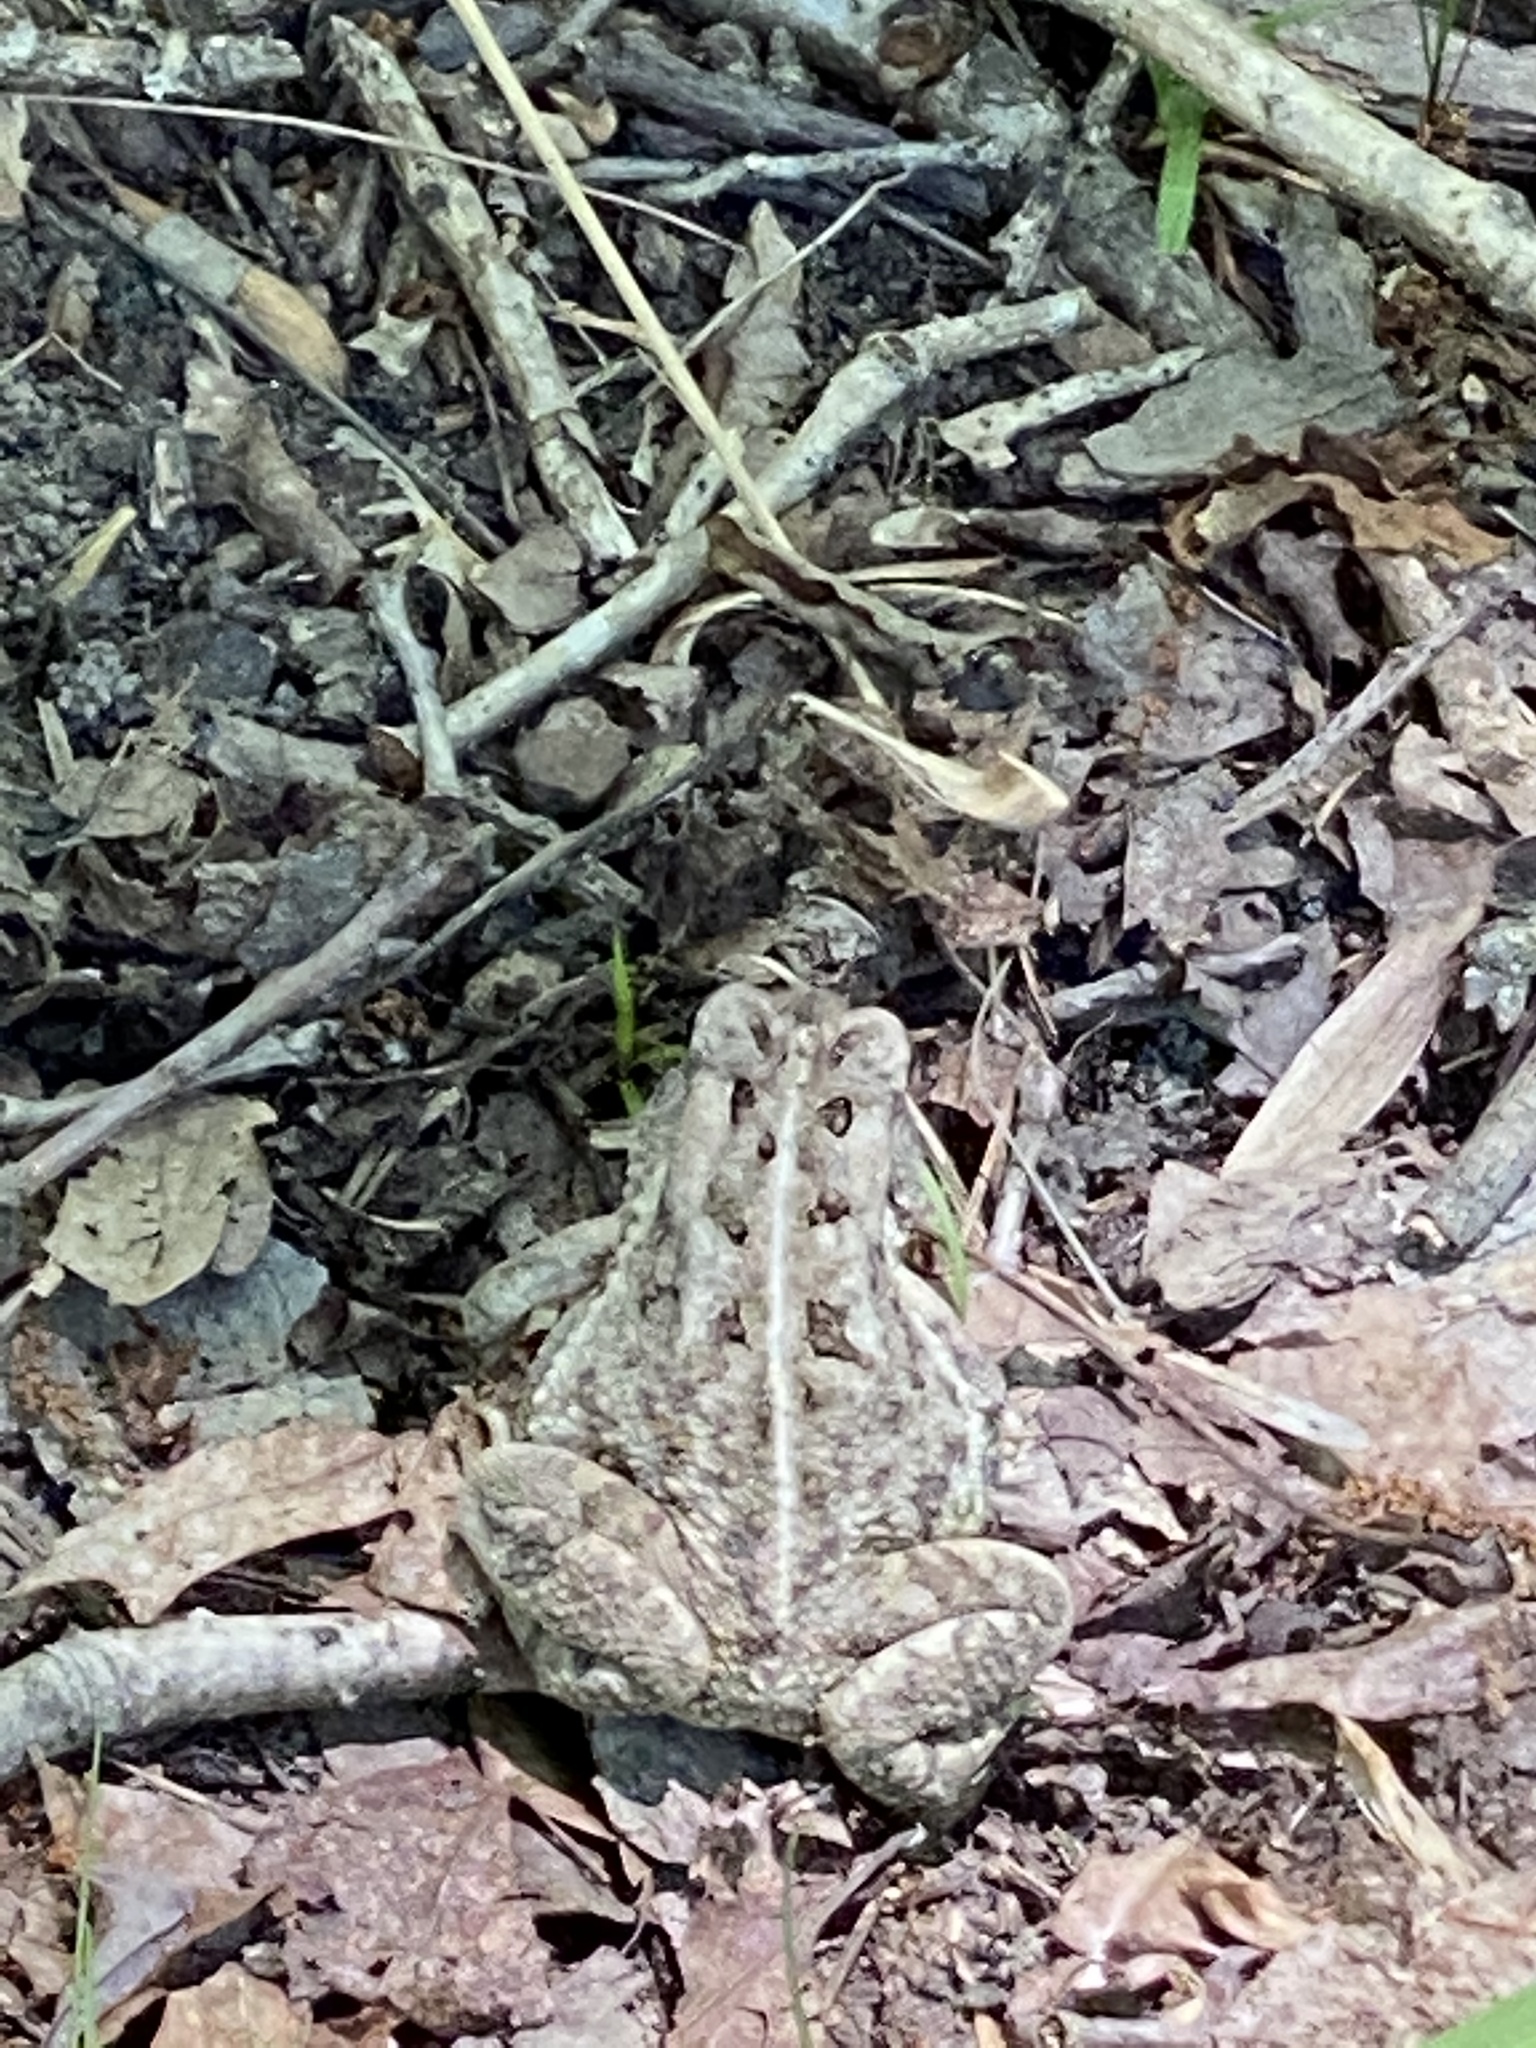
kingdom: Animalia
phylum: Chordata
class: Amphibia
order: Anura
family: Bufonidae
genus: Anaxyrus
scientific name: Anaxyrus fowleri
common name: Fowler's toad
